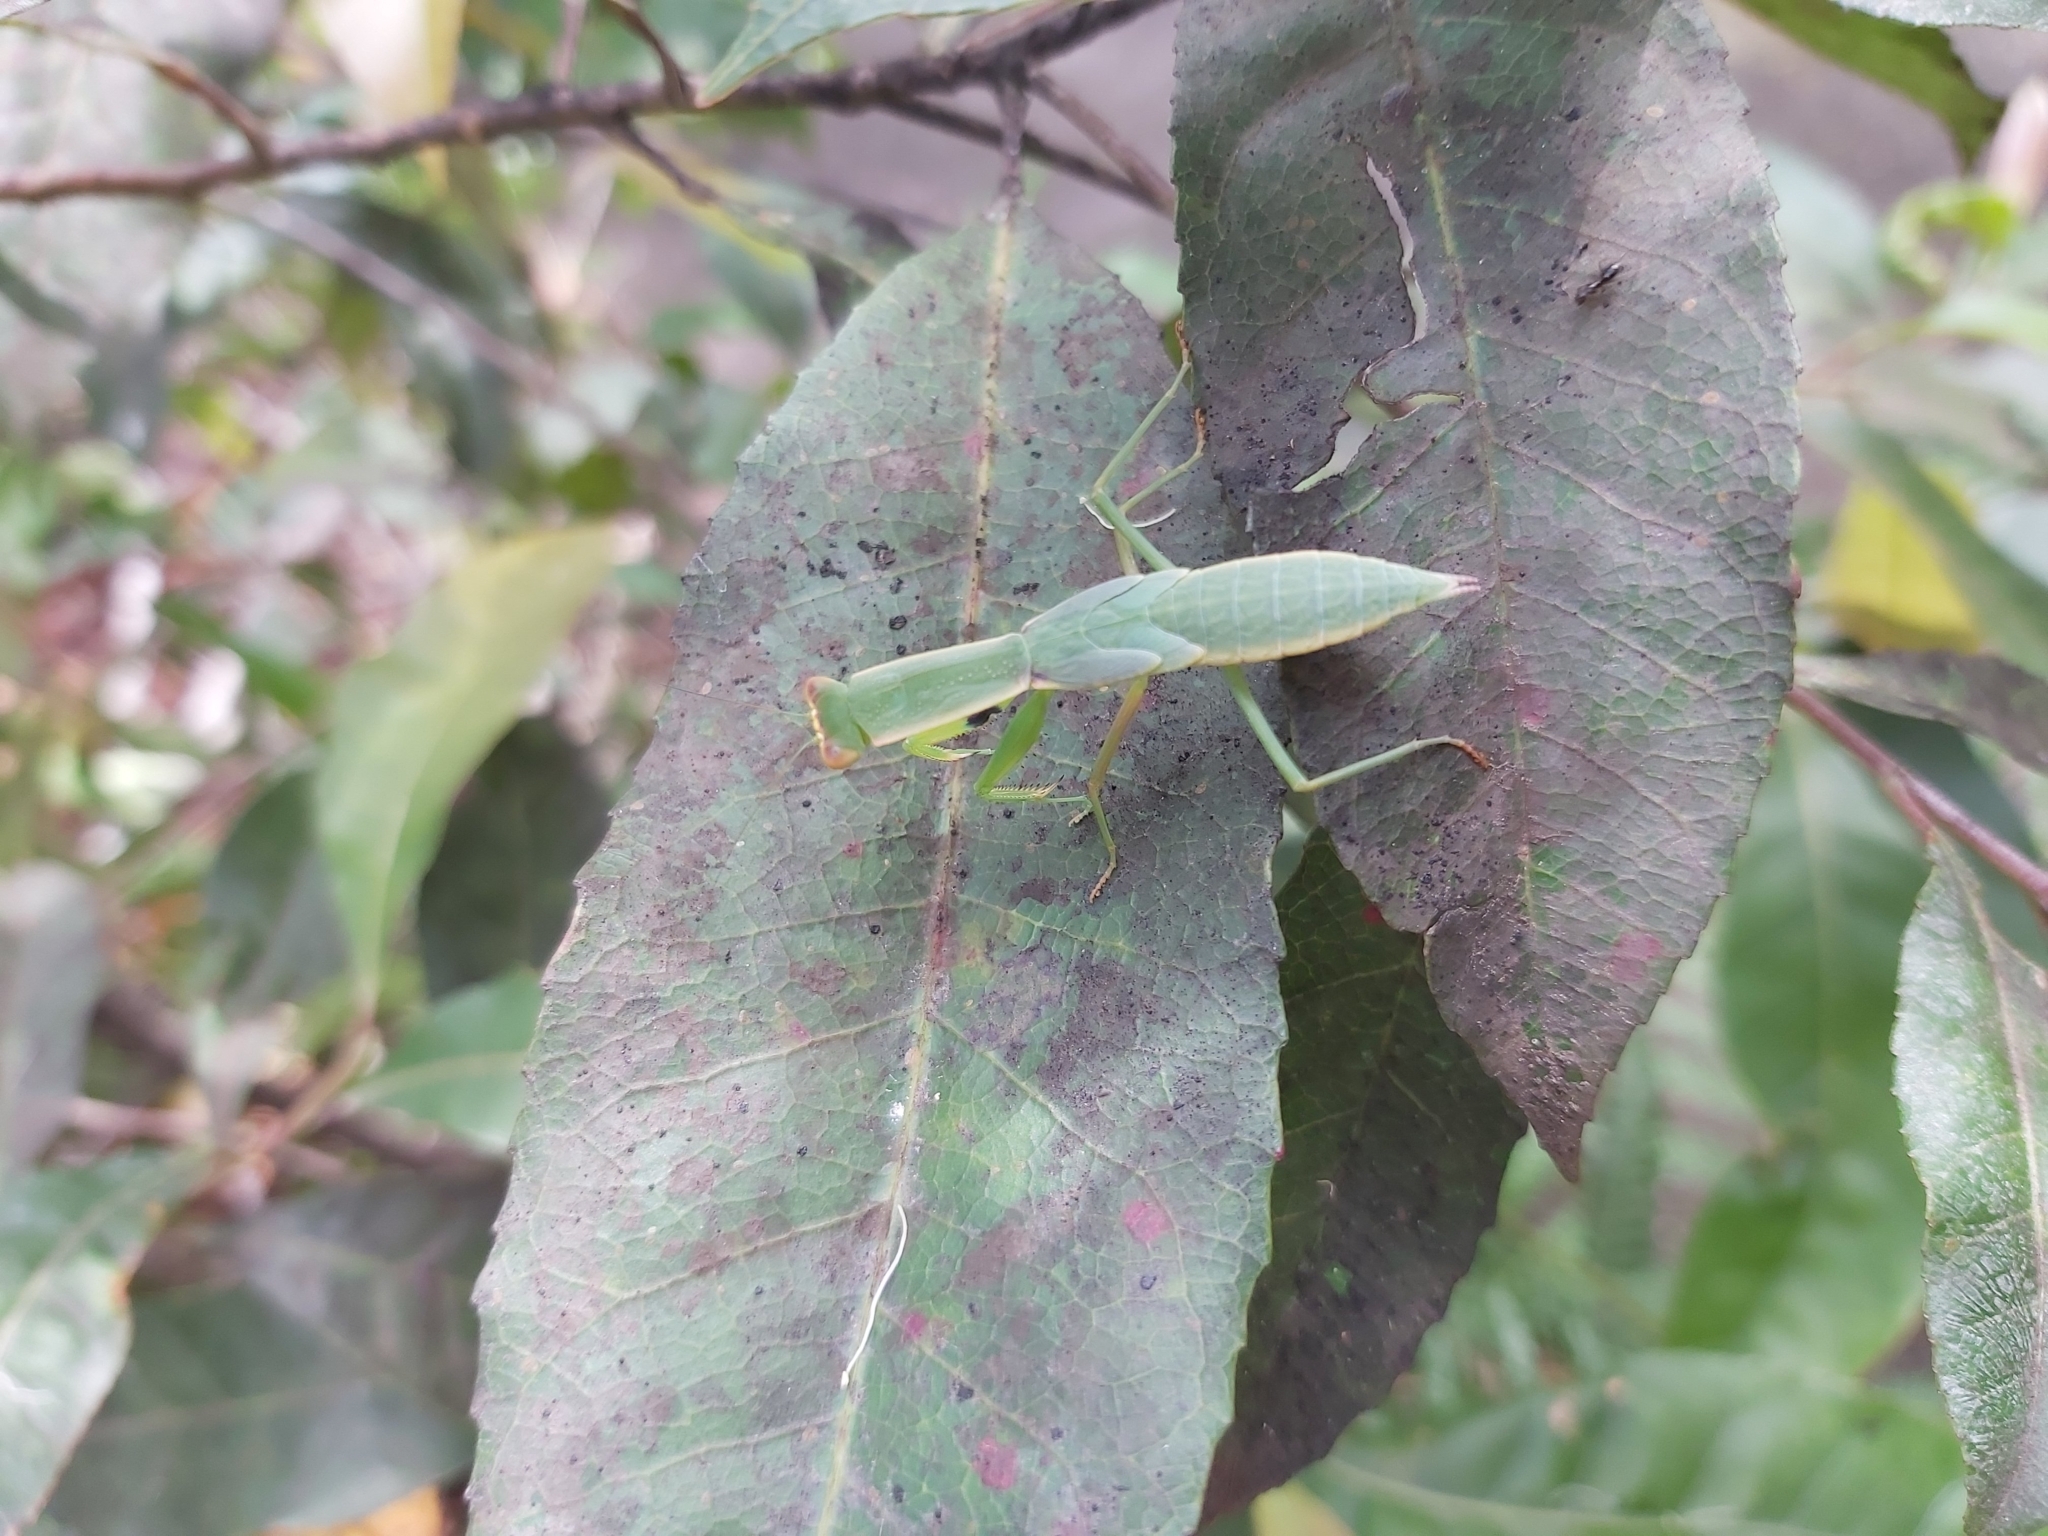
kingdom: Animalia
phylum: Arthropoda
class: Insecta
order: Mantodea
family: Mantidae
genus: Orthodera
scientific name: Orthodera ministralis
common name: Mantis
